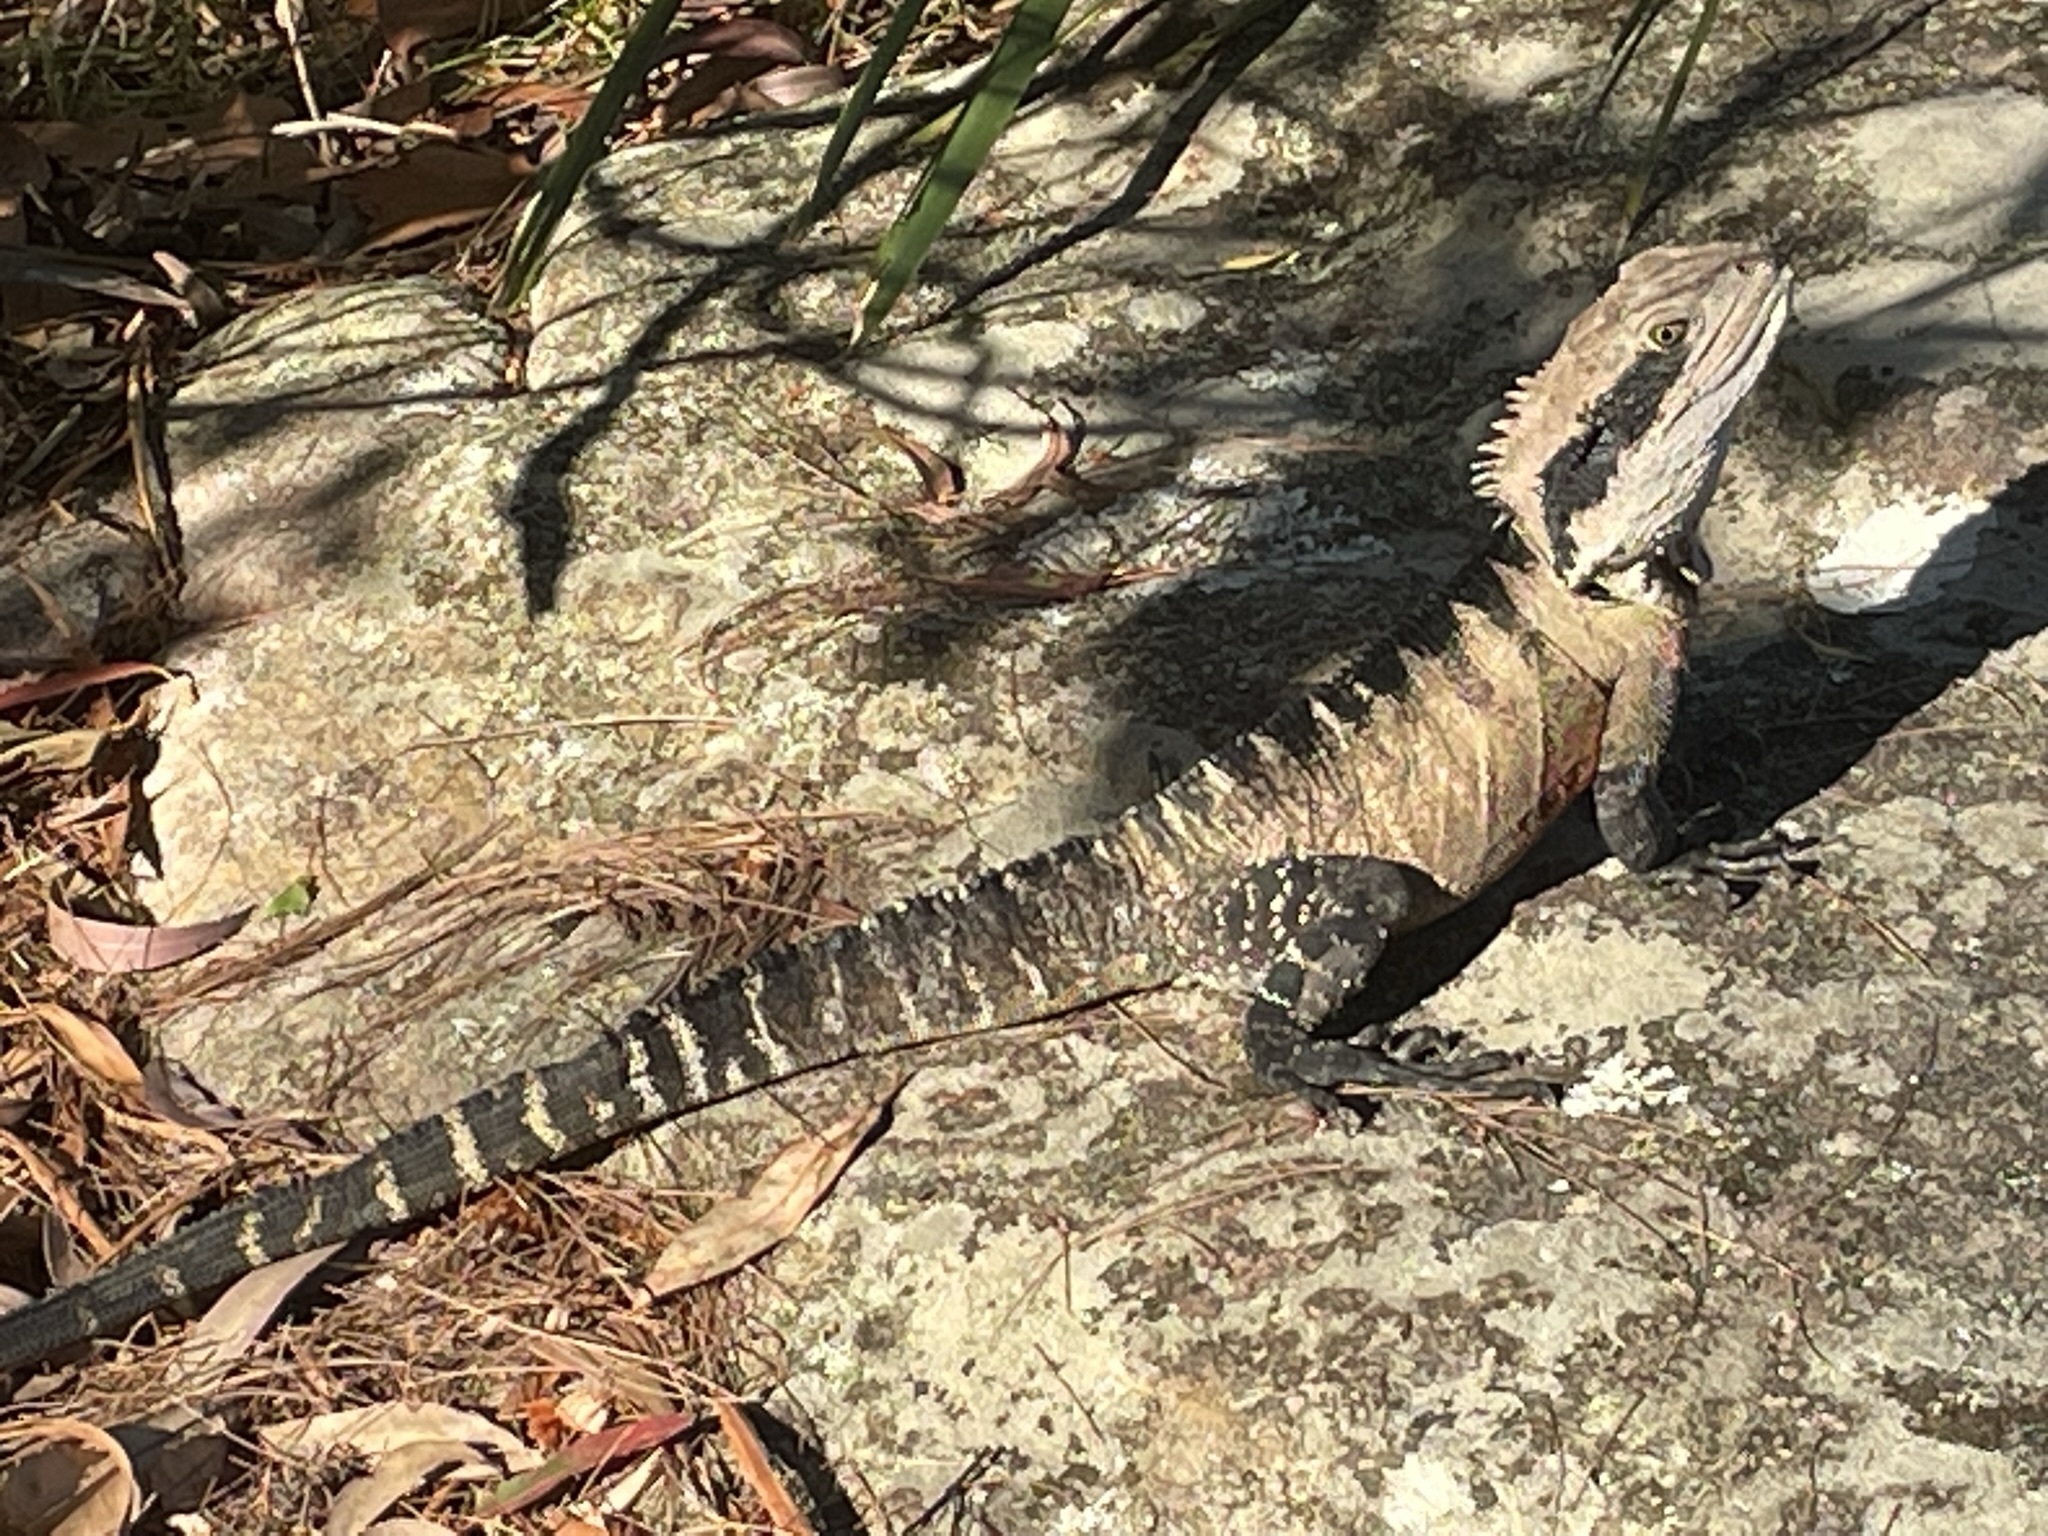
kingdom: Animalia
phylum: Chordata
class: Squamata
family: Agamidae
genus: Intellagama
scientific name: Intellagama lesueurii
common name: Eastern water dragon
